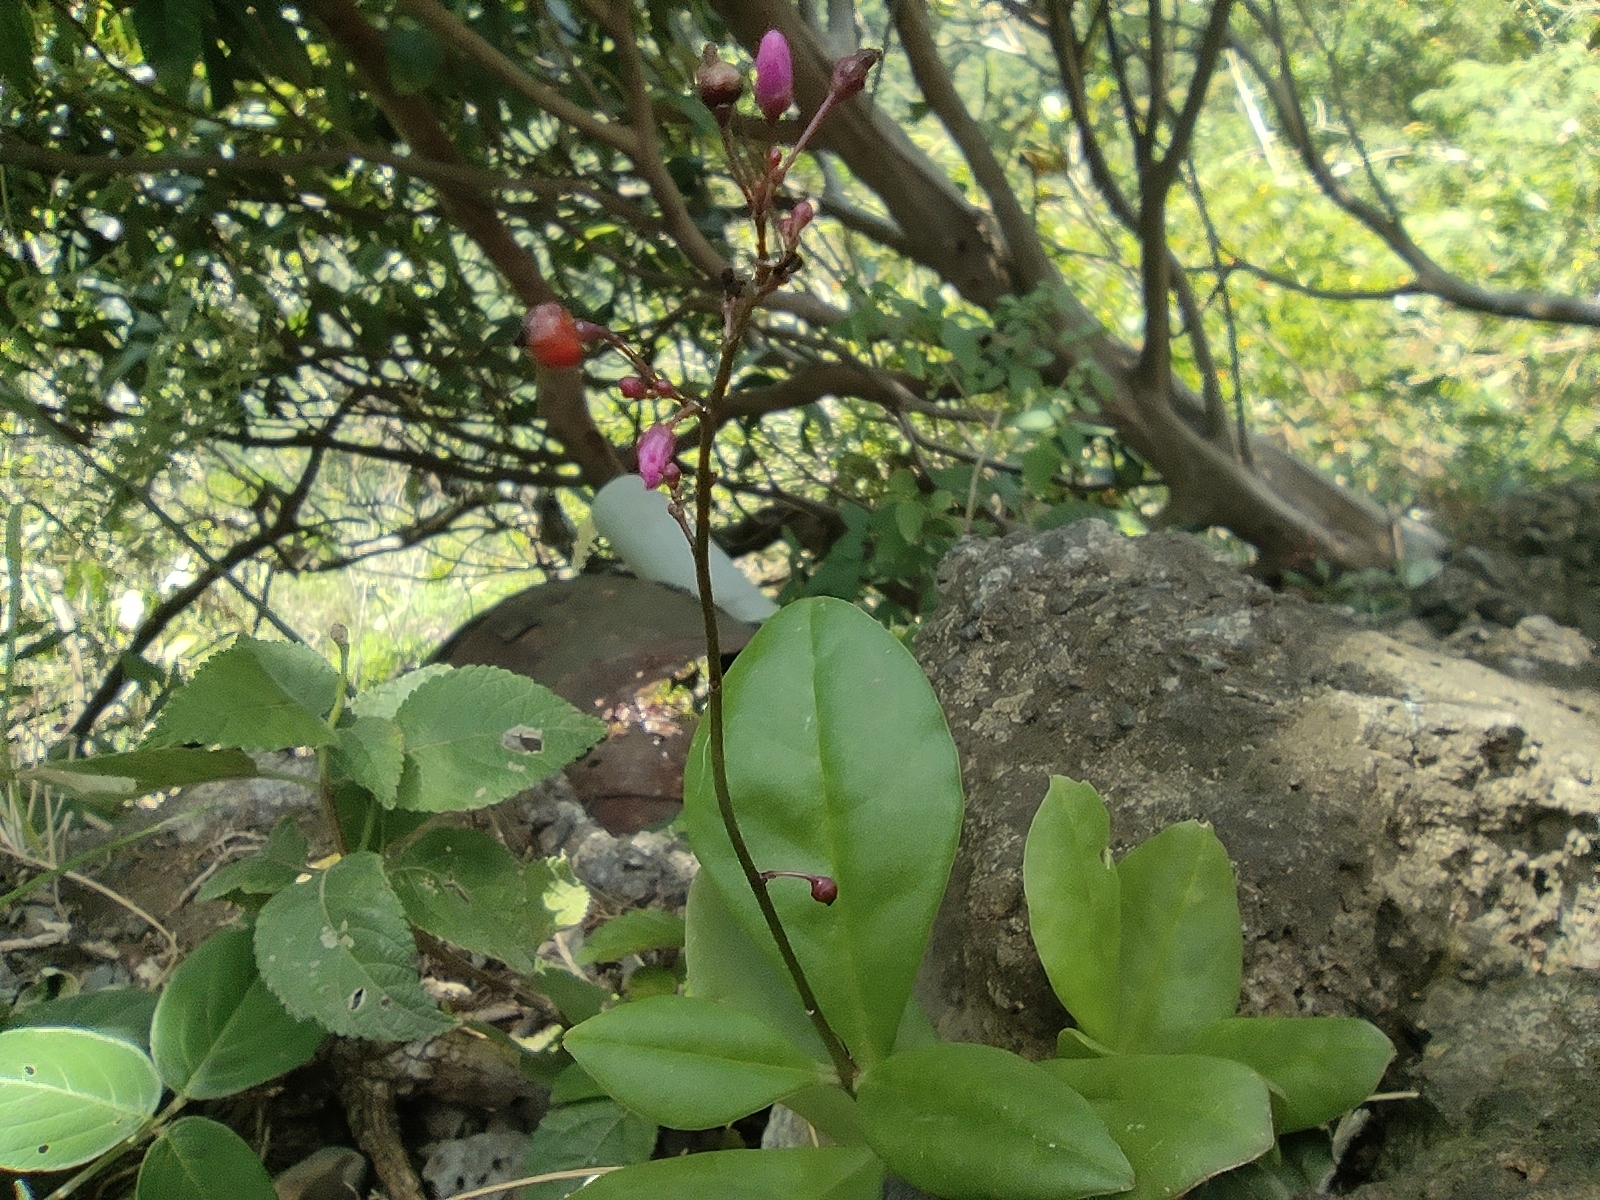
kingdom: Plantae
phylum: Tracheophyta
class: Magnoliopsida
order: Caryophyllales
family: Talinaceae
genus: Talinum
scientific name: Talinum paniculatum
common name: Jewels of opar
